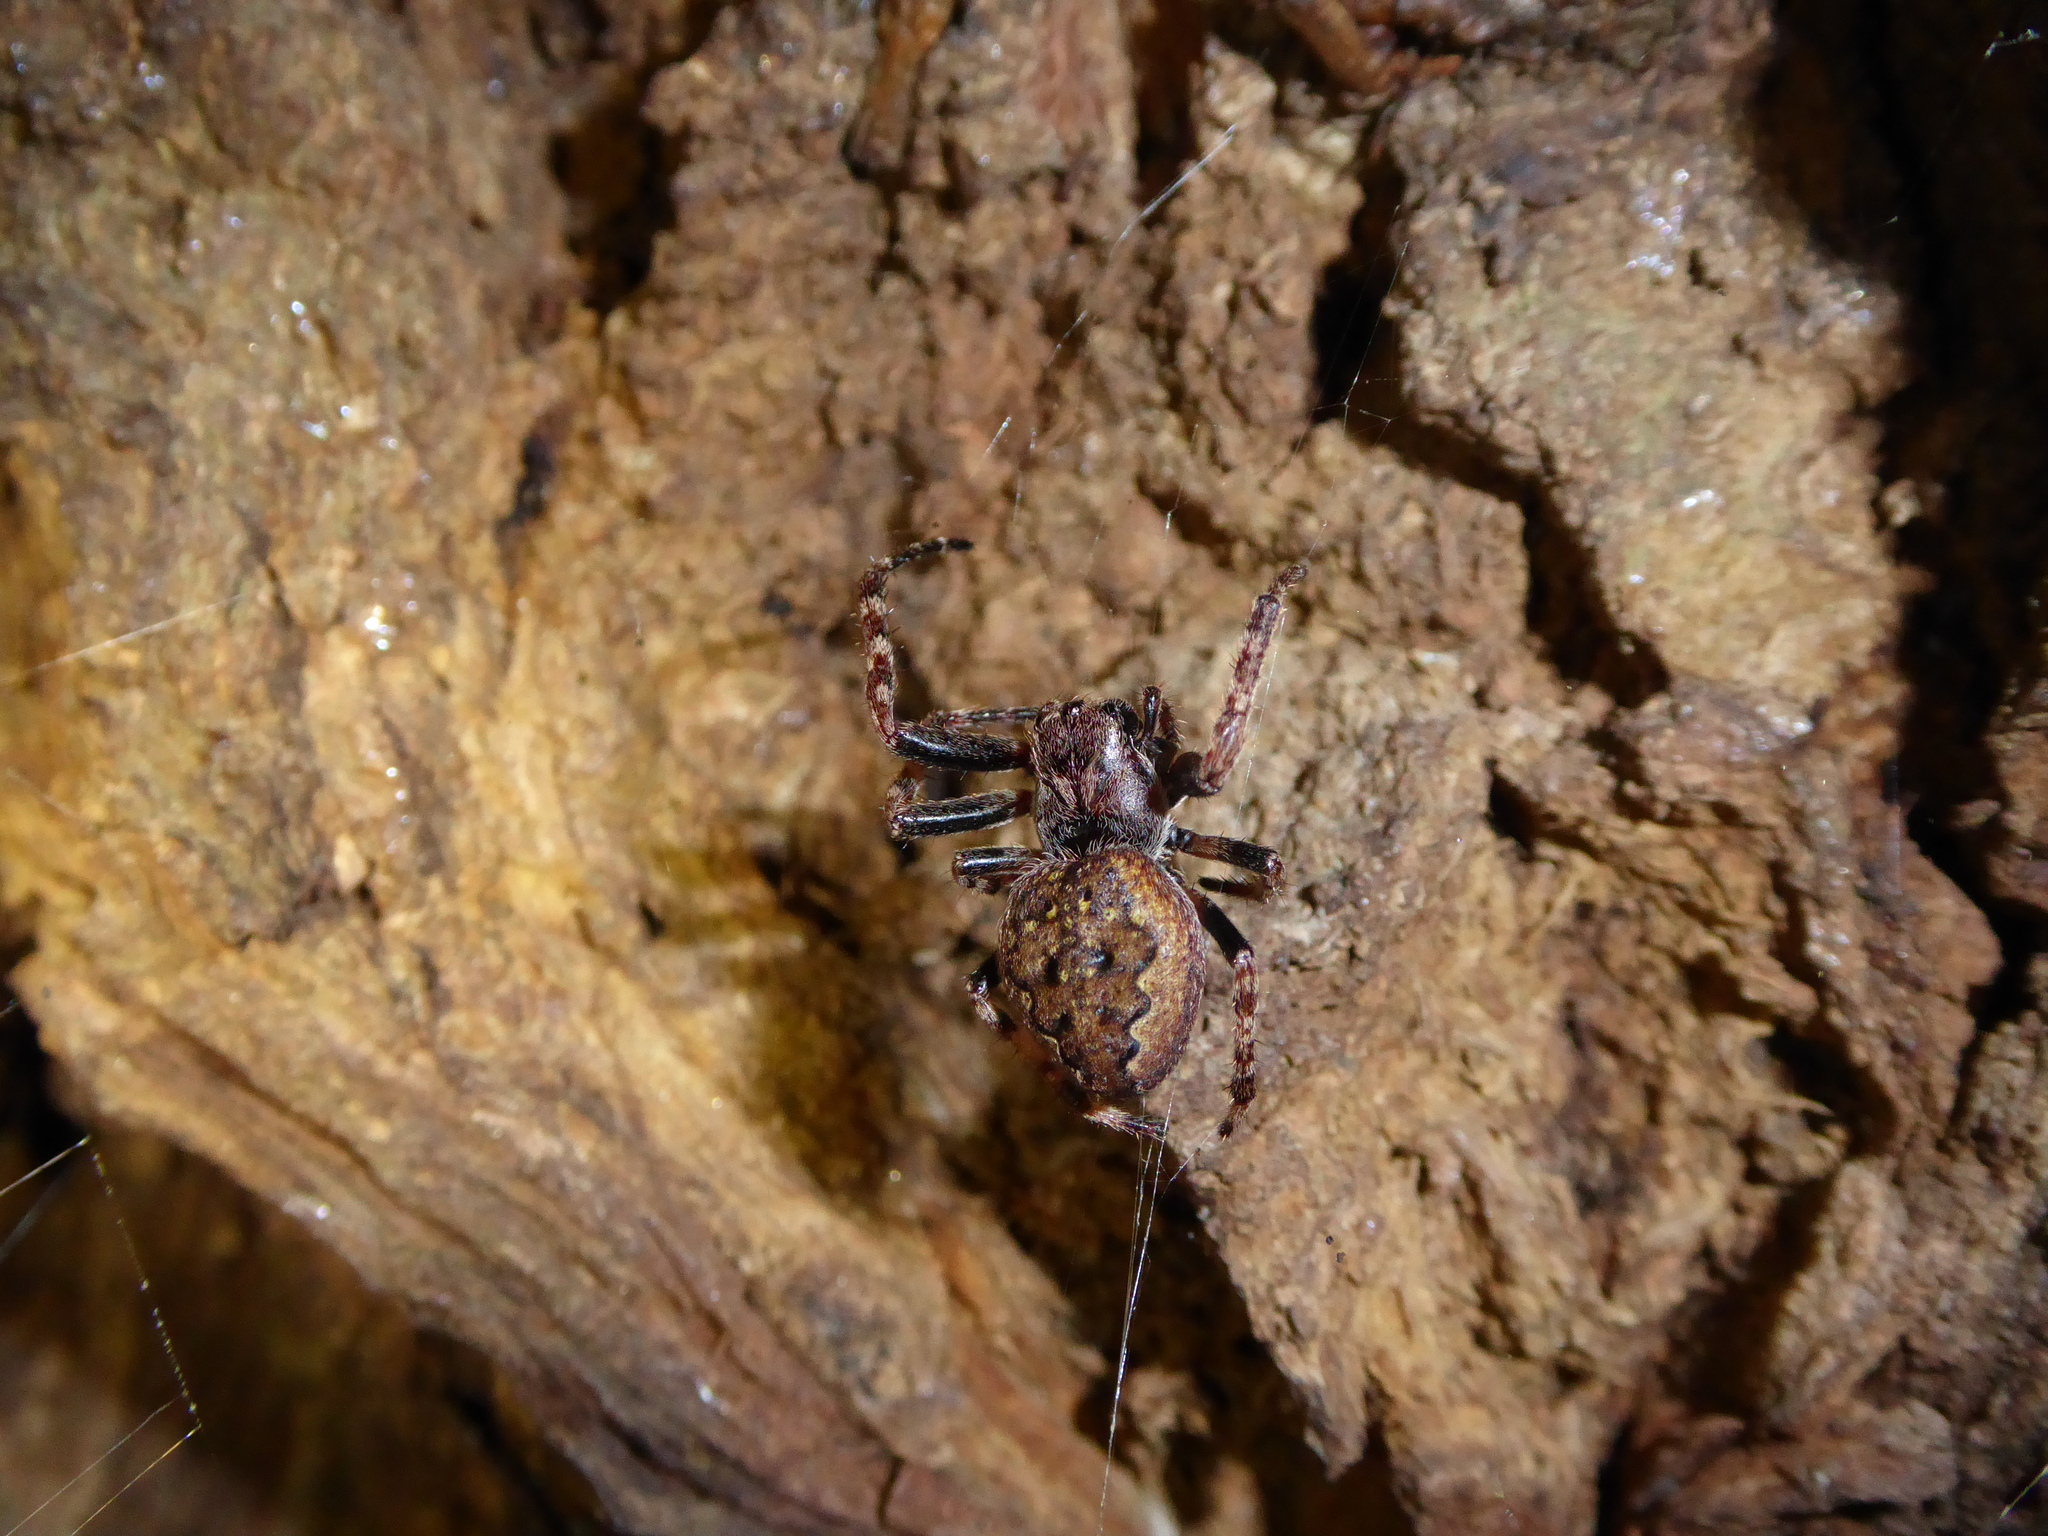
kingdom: Animalia
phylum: Arthropoda
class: Arachnida
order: Araneae
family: Araneidae
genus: Nuctenea
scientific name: Nuctenea umbratica
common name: Toad spider
